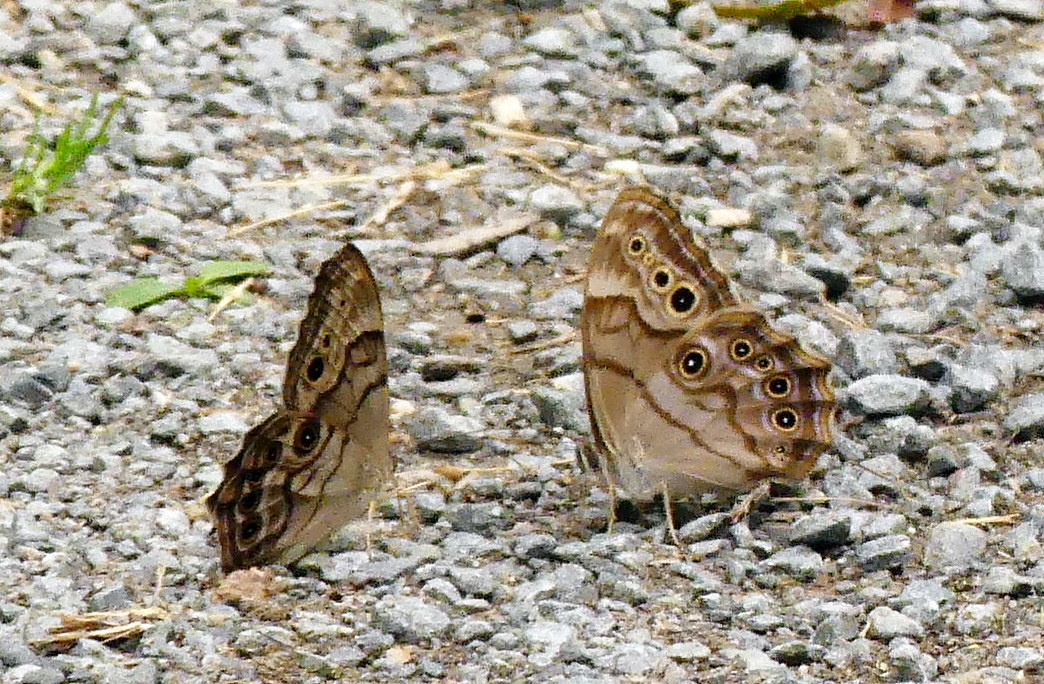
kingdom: Animalia
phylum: Arthropoda
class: Insecta
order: Lepidoptera
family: Nymphalidae
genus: Lethe
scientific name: Lethe anthedon
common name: Northern pearly-eye
